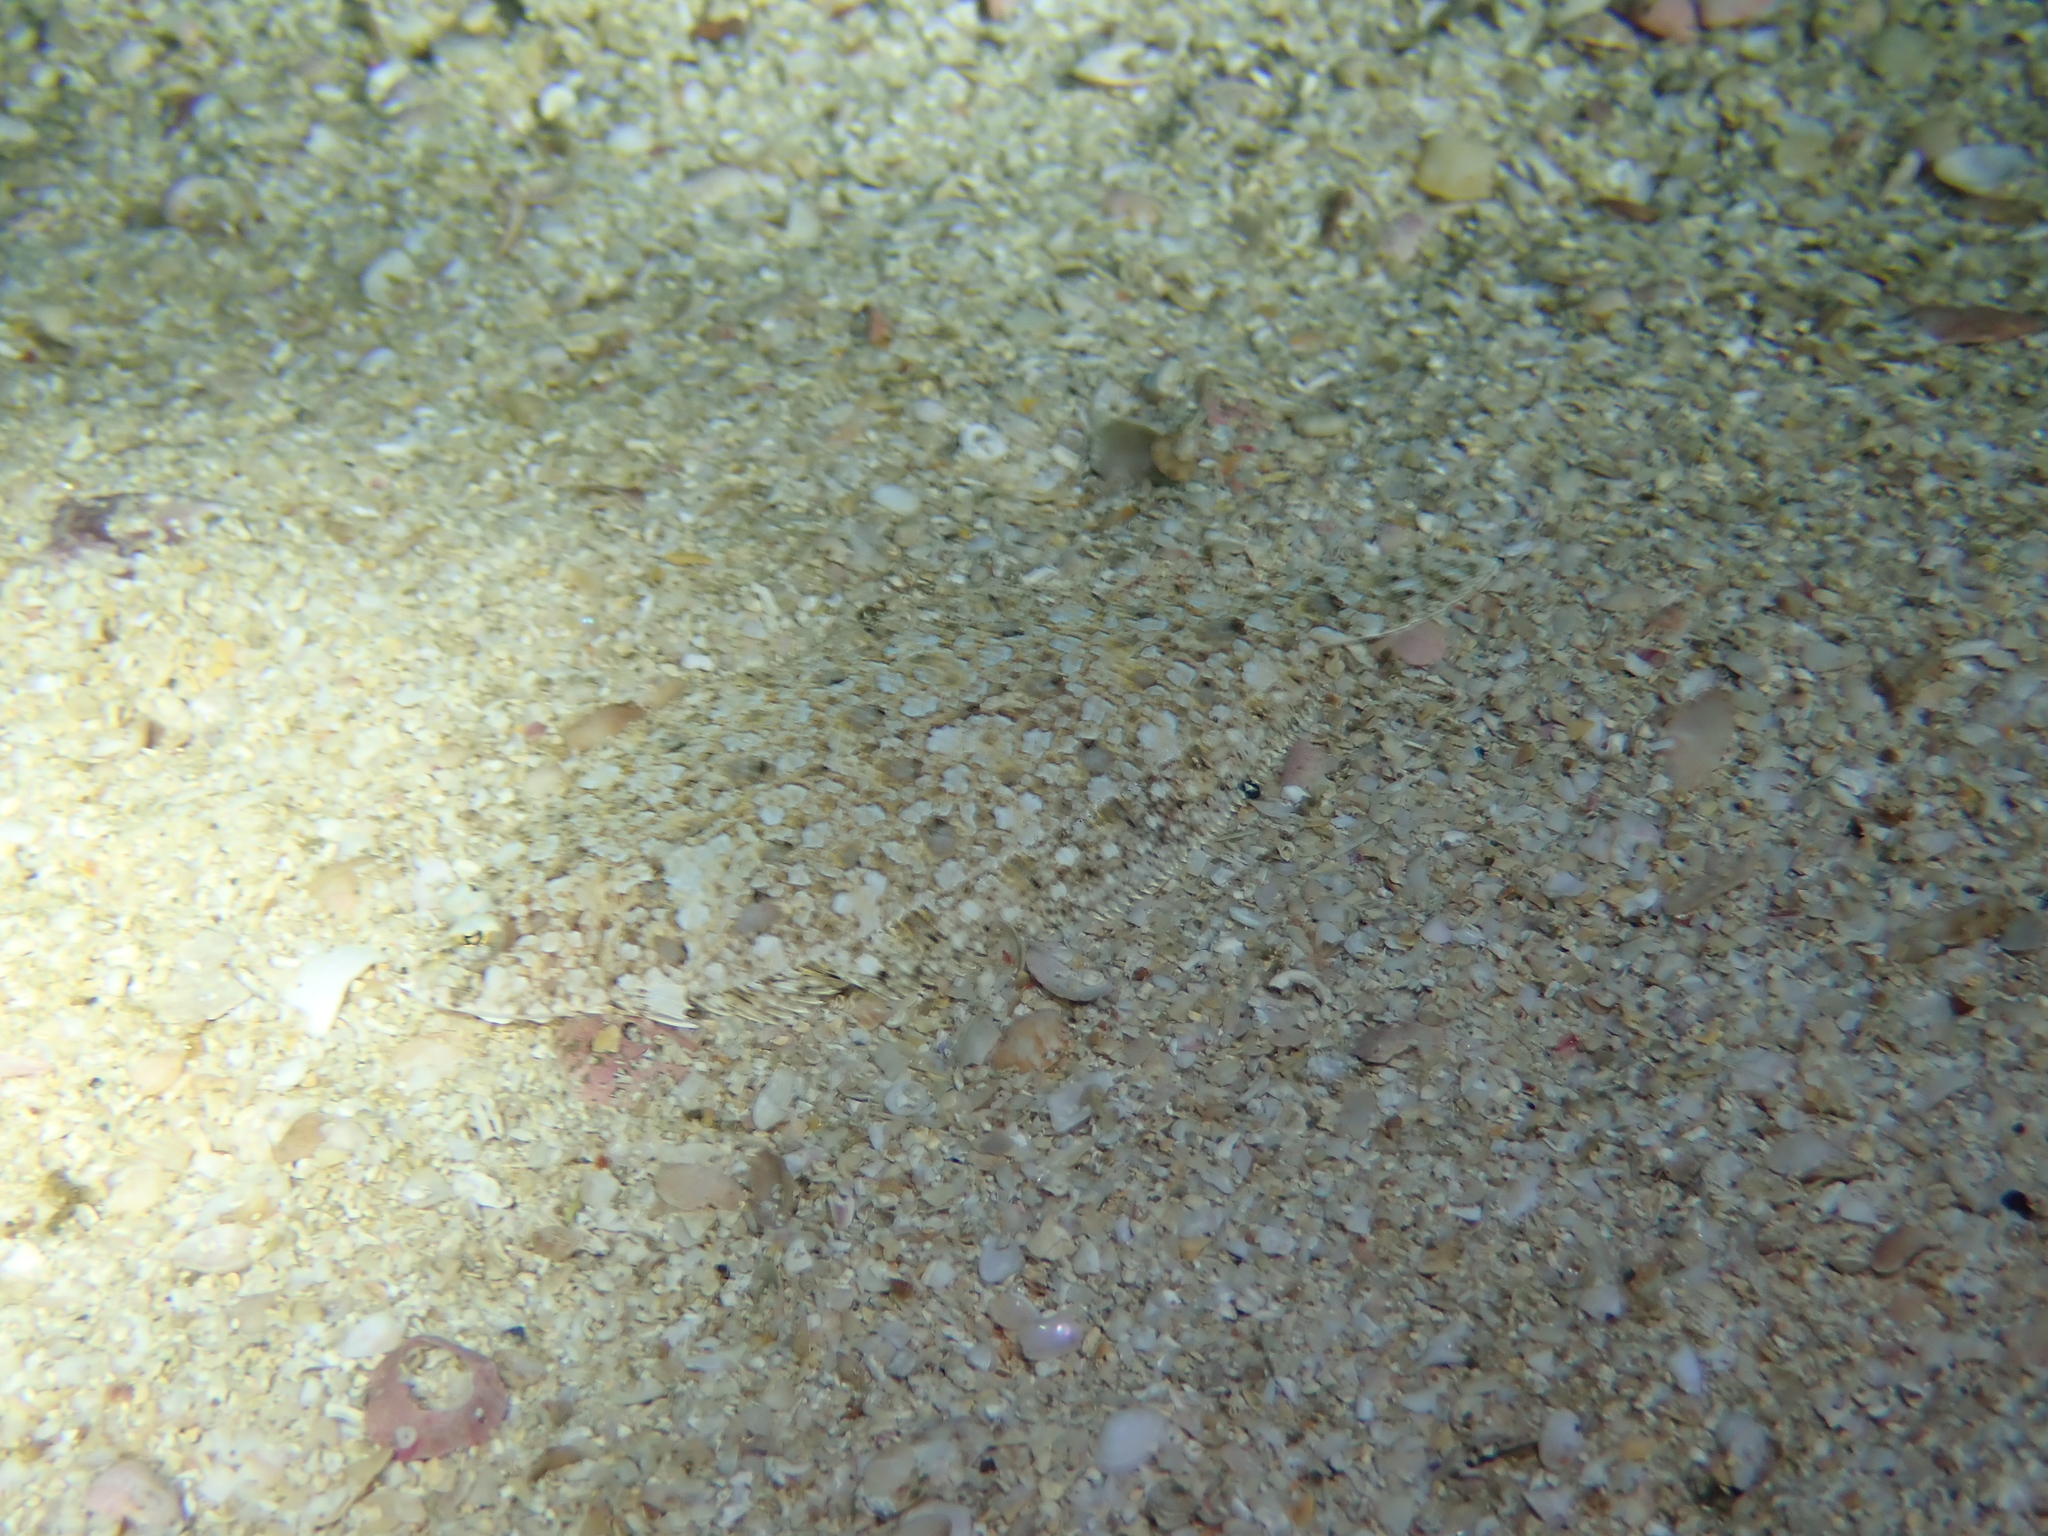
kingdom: Animalia
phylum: Chordata
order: Pleuronectiformes
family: Bothidae
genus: Arnoglossus
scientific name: Arnoglossus thori
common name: Thor's scaldfish
